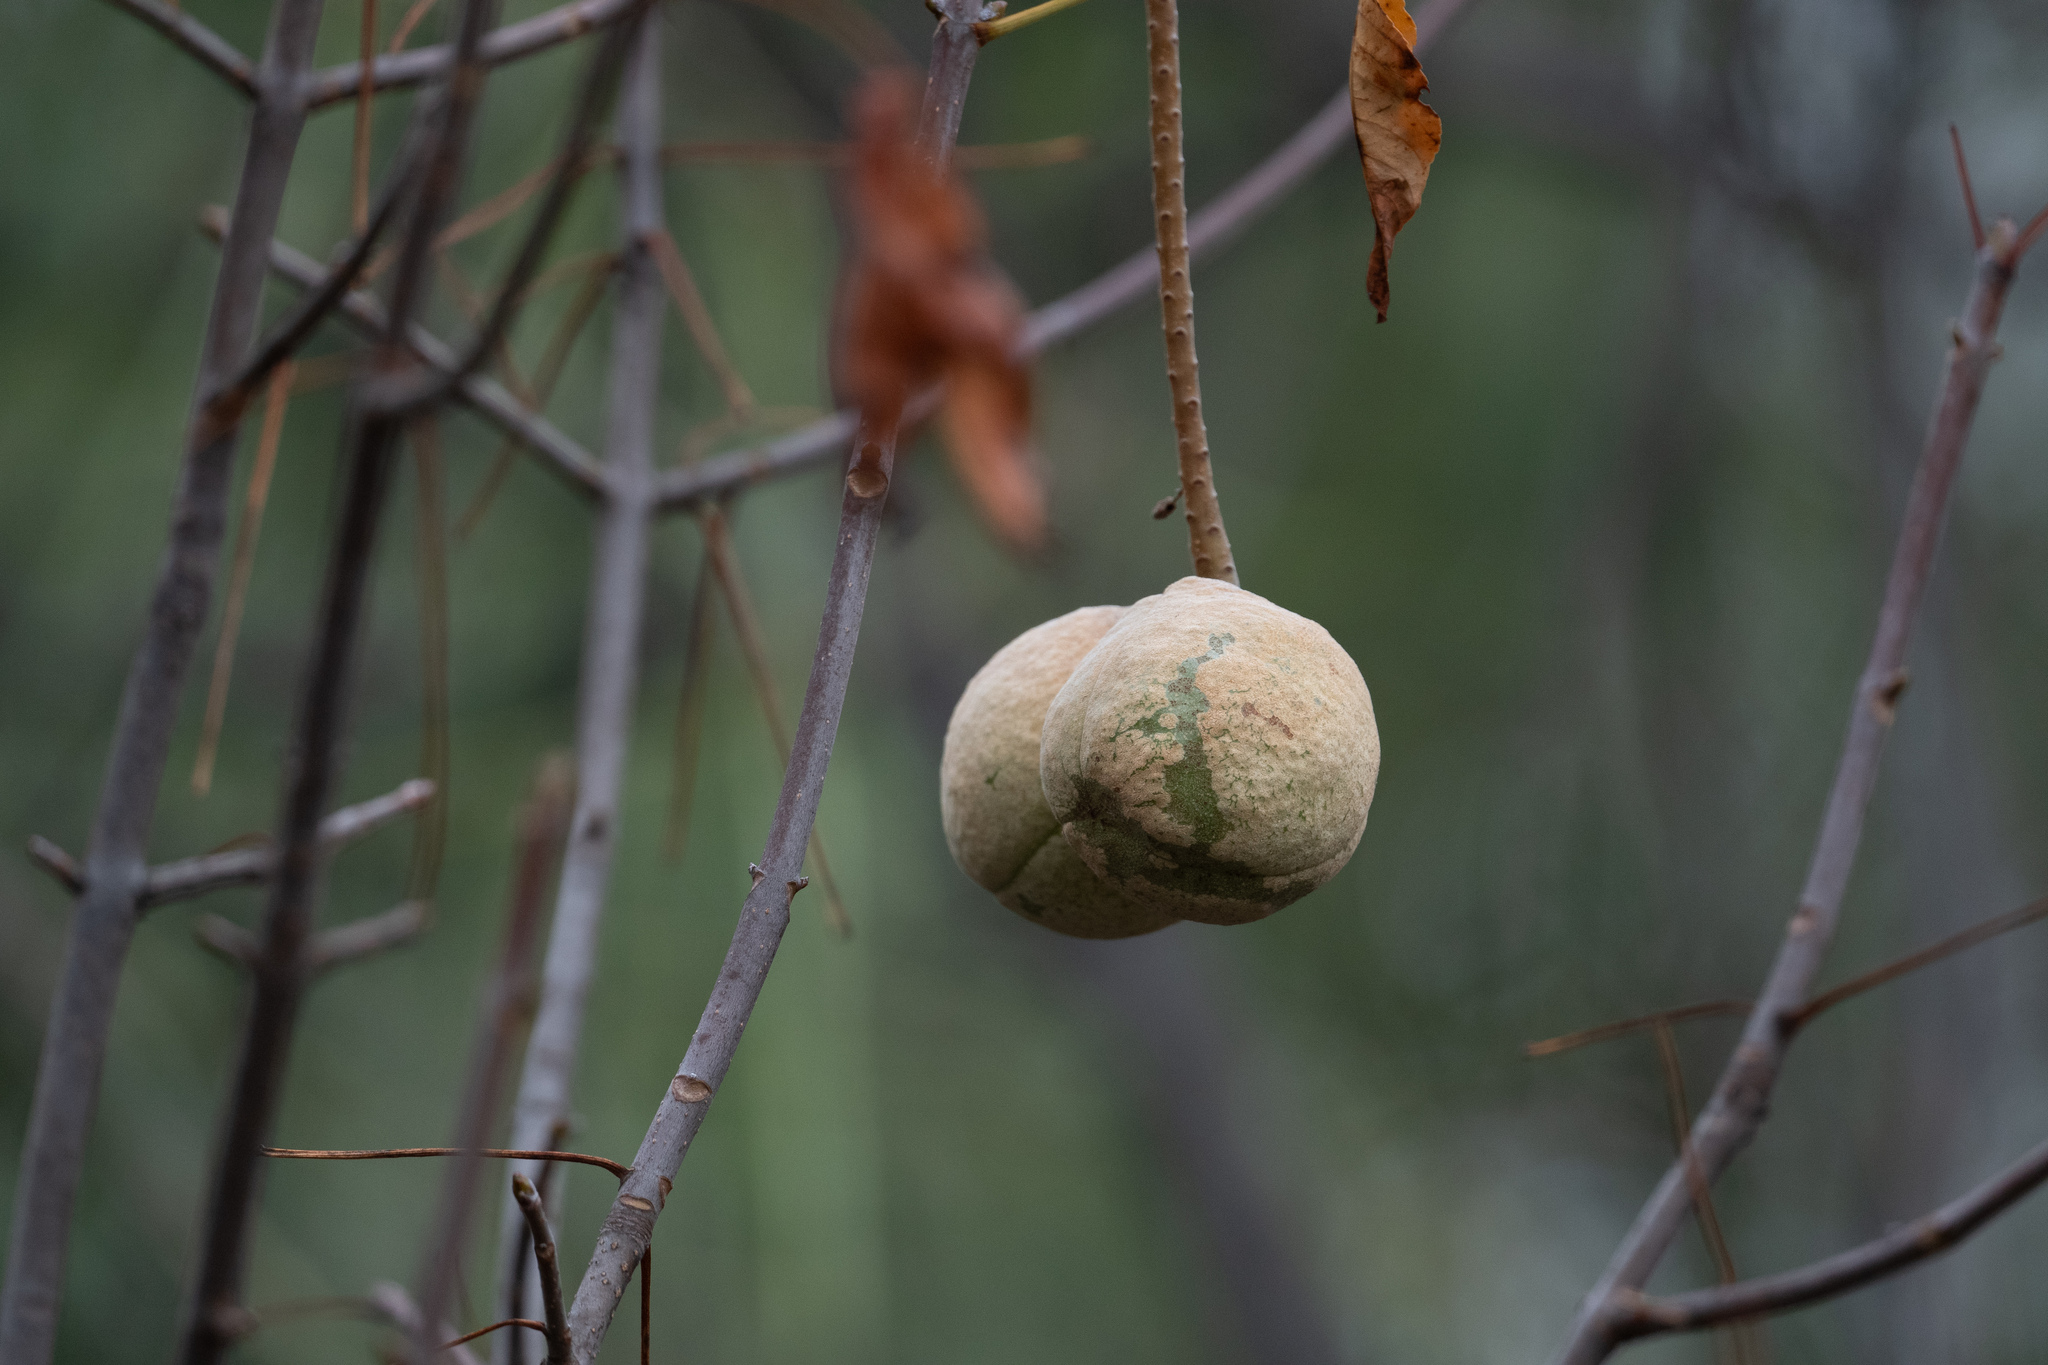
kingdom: Plantae
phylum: Tracheophyta
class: Magnoliopsida
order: Sapindales
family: Sapindaceae
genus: Aesculus
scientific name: Aesculus californica
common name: California buckeye
